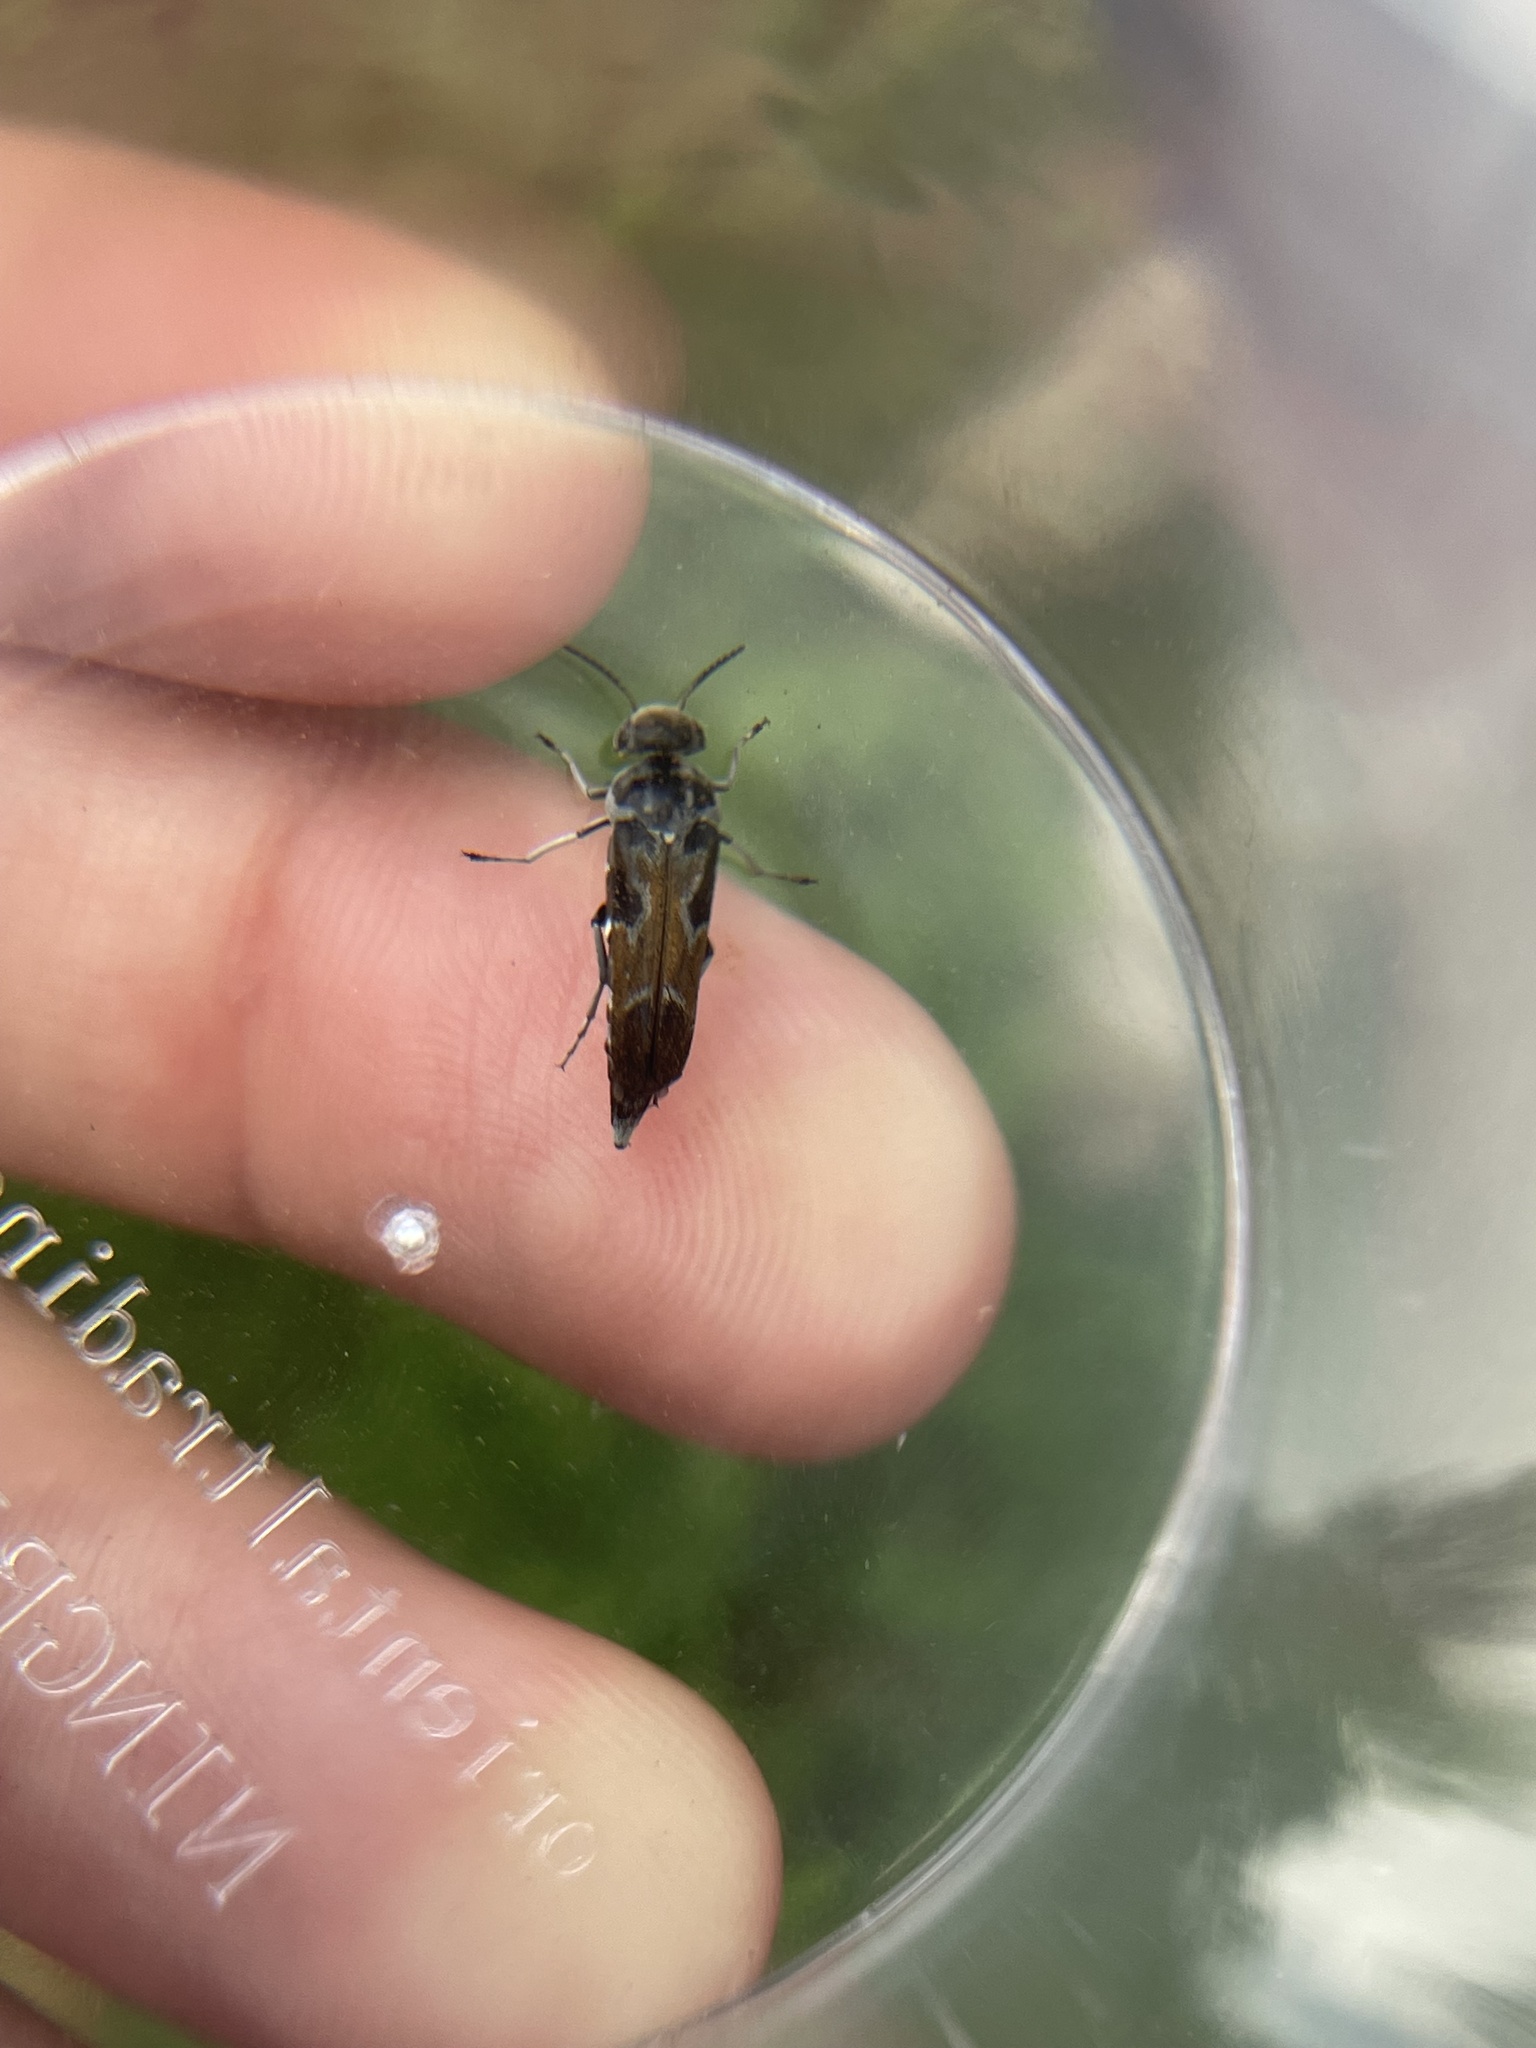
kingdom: Animalia
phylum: Arthropoda
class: Insecta
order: Coleoptera
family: Mordellidae
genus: Glipa
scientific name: Glipa hilaris
